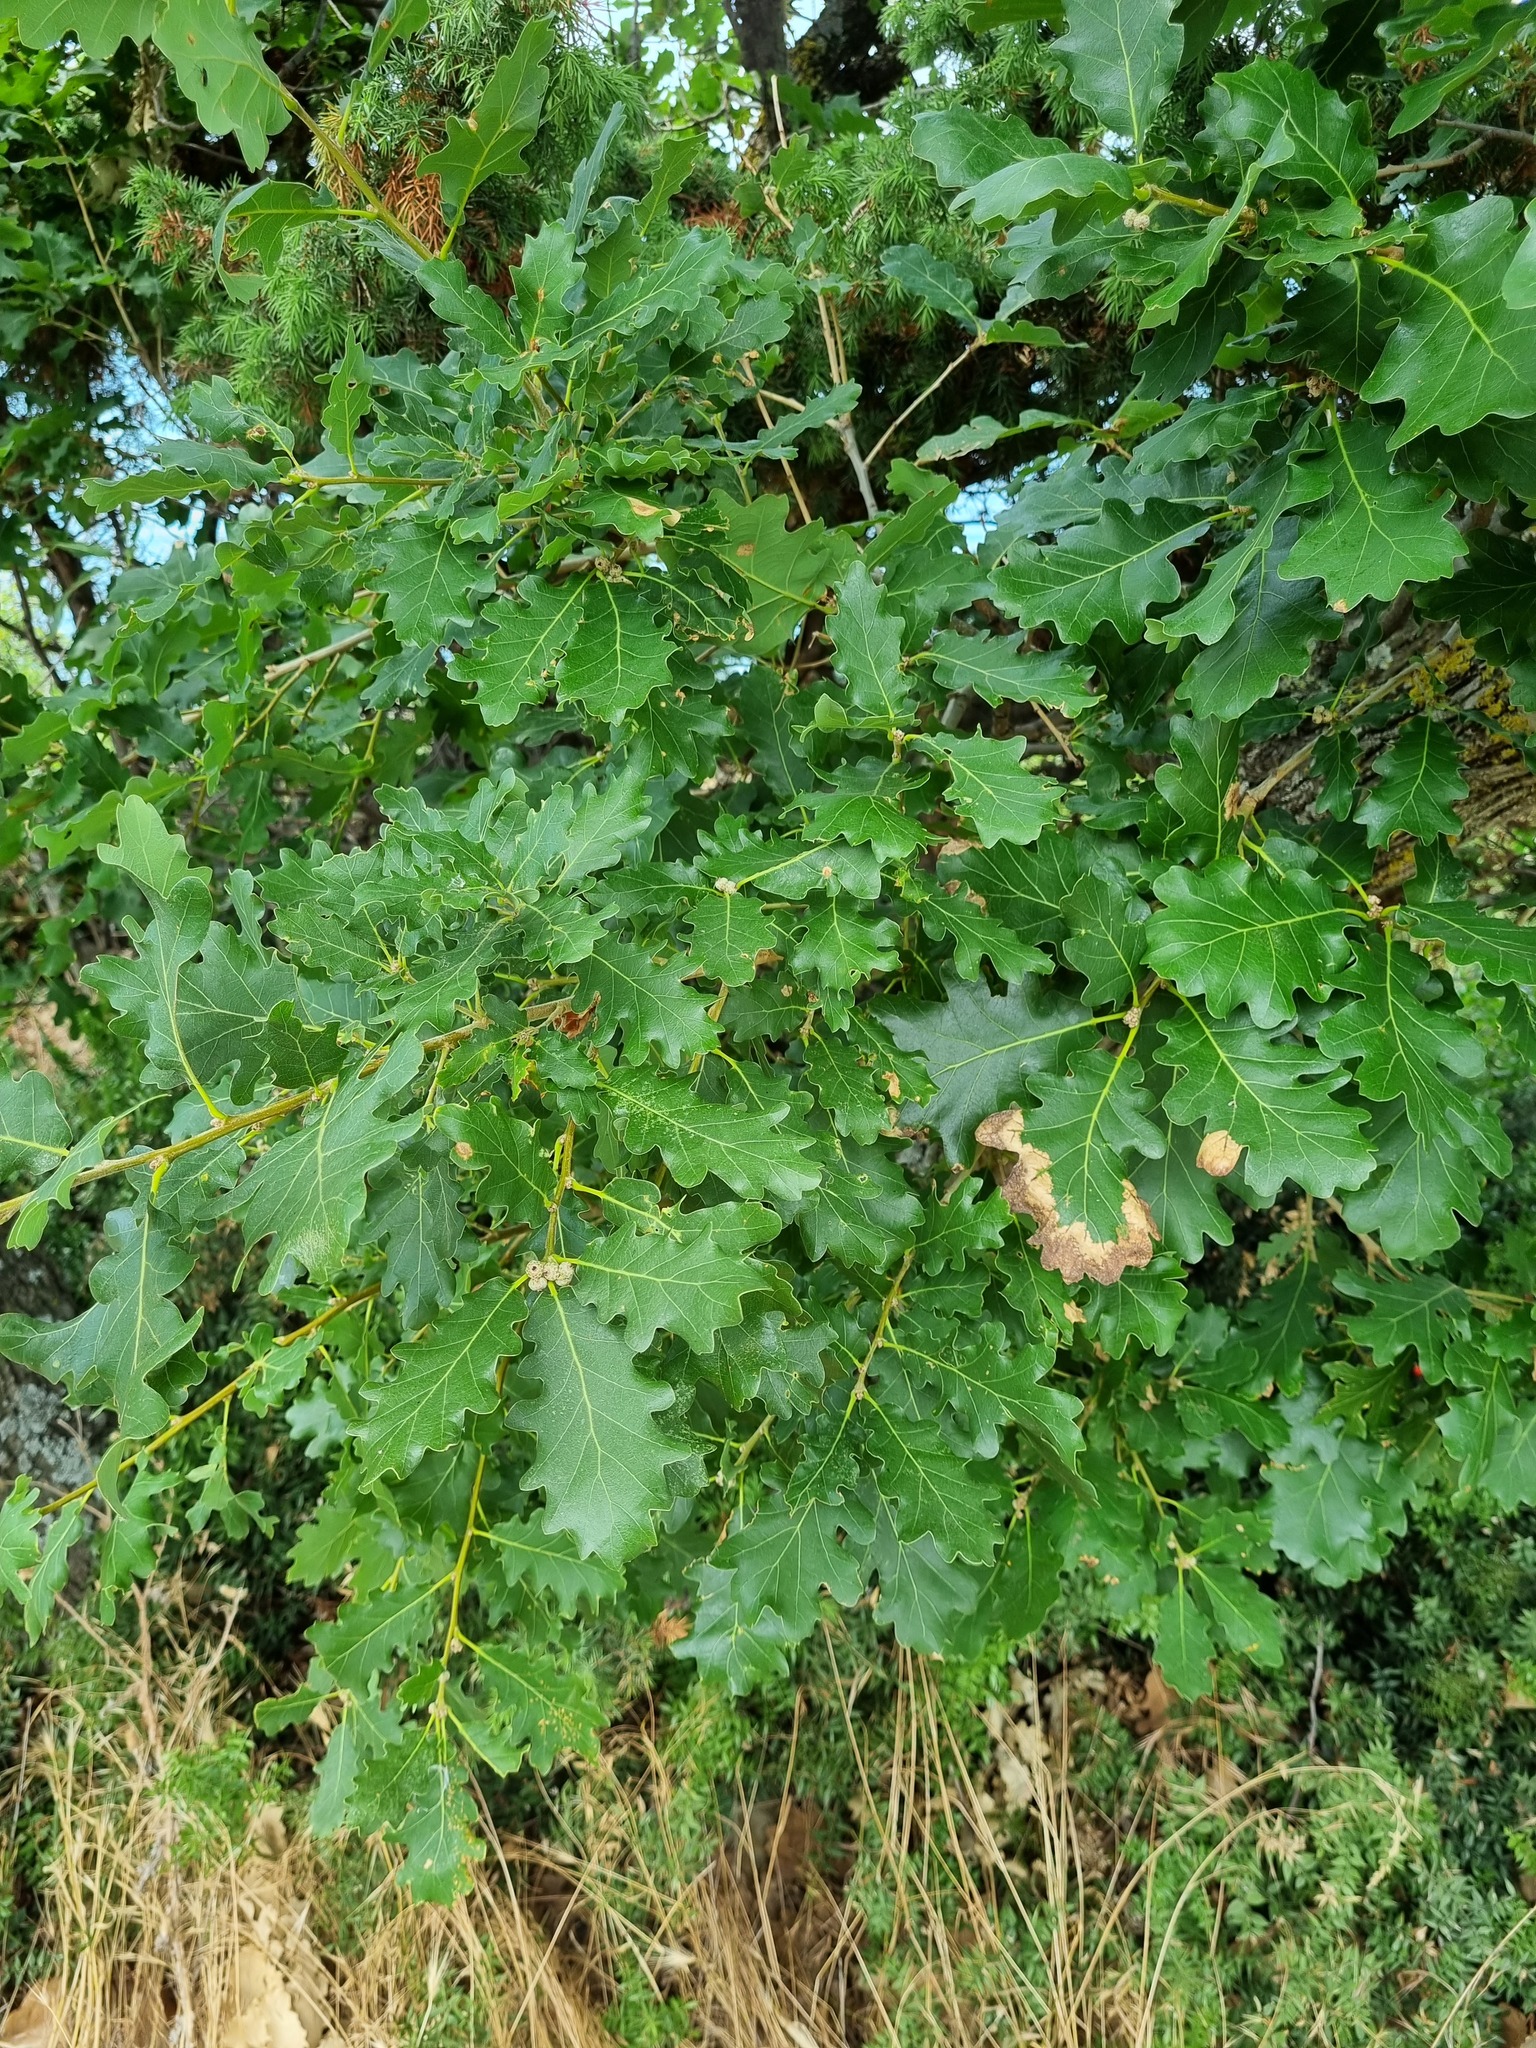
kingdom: Plantae
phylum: Tracheophyta
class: Magnoliopsida
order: Fagales
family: Fagaceae
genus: Quercus
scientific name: Quercus pubescens
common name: Downy oak
